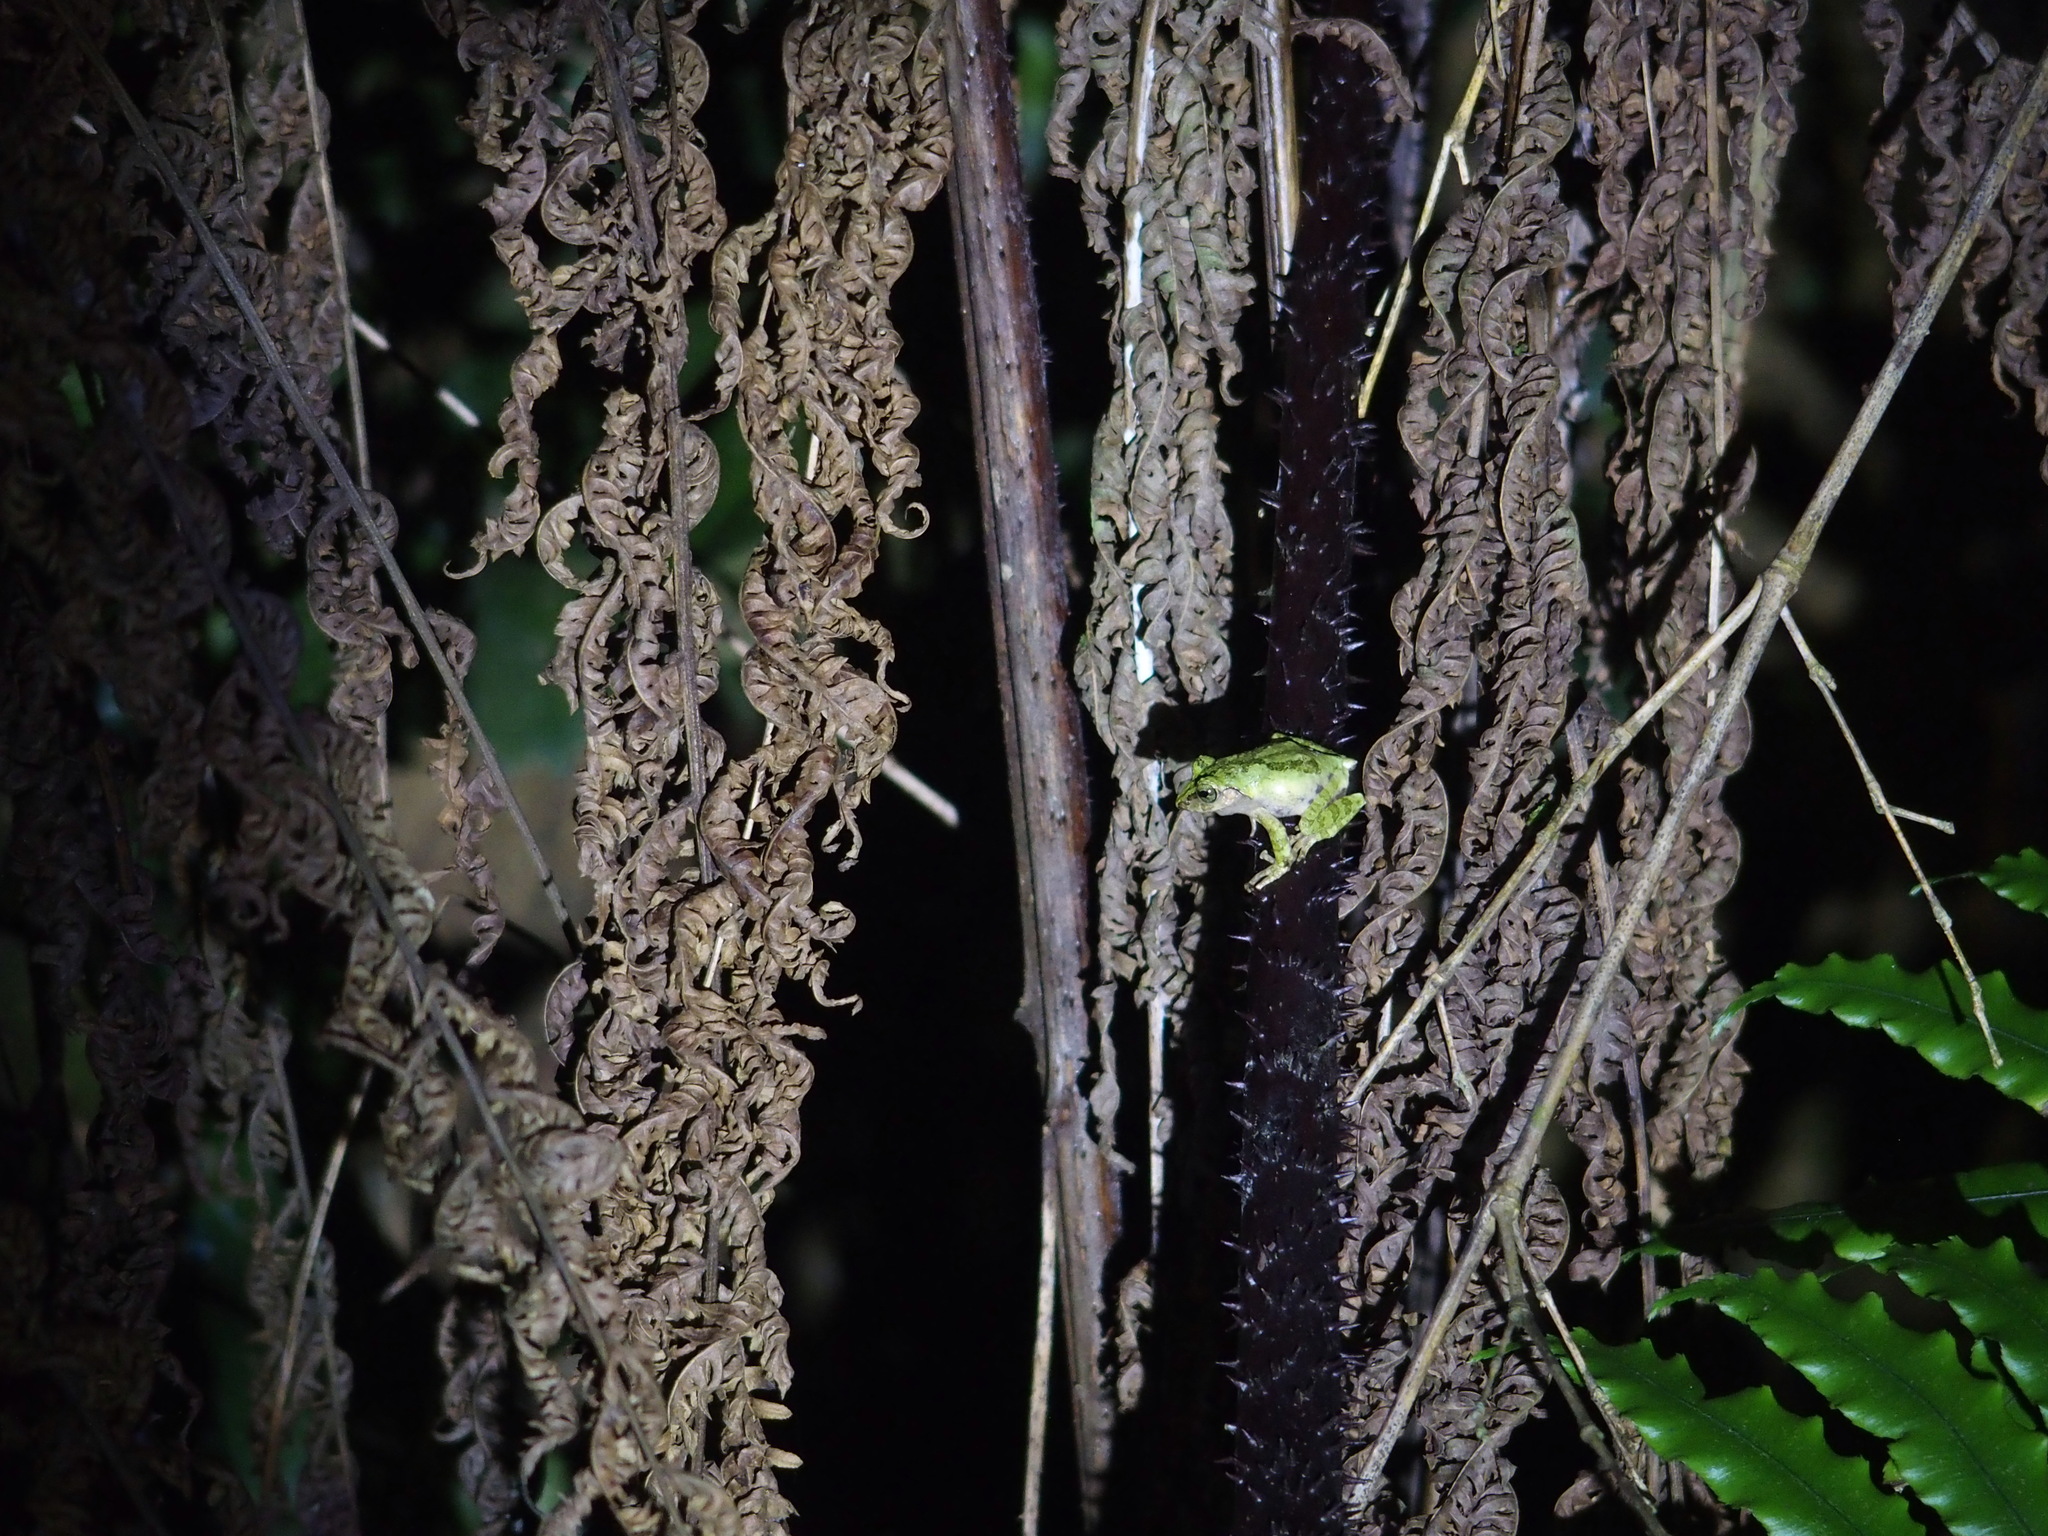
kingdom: Animalia
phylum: Chordata
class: Amphibia
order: Anura
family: Rhacophoridae
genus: Kurixalus
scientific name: Kurixalus berylliniris
